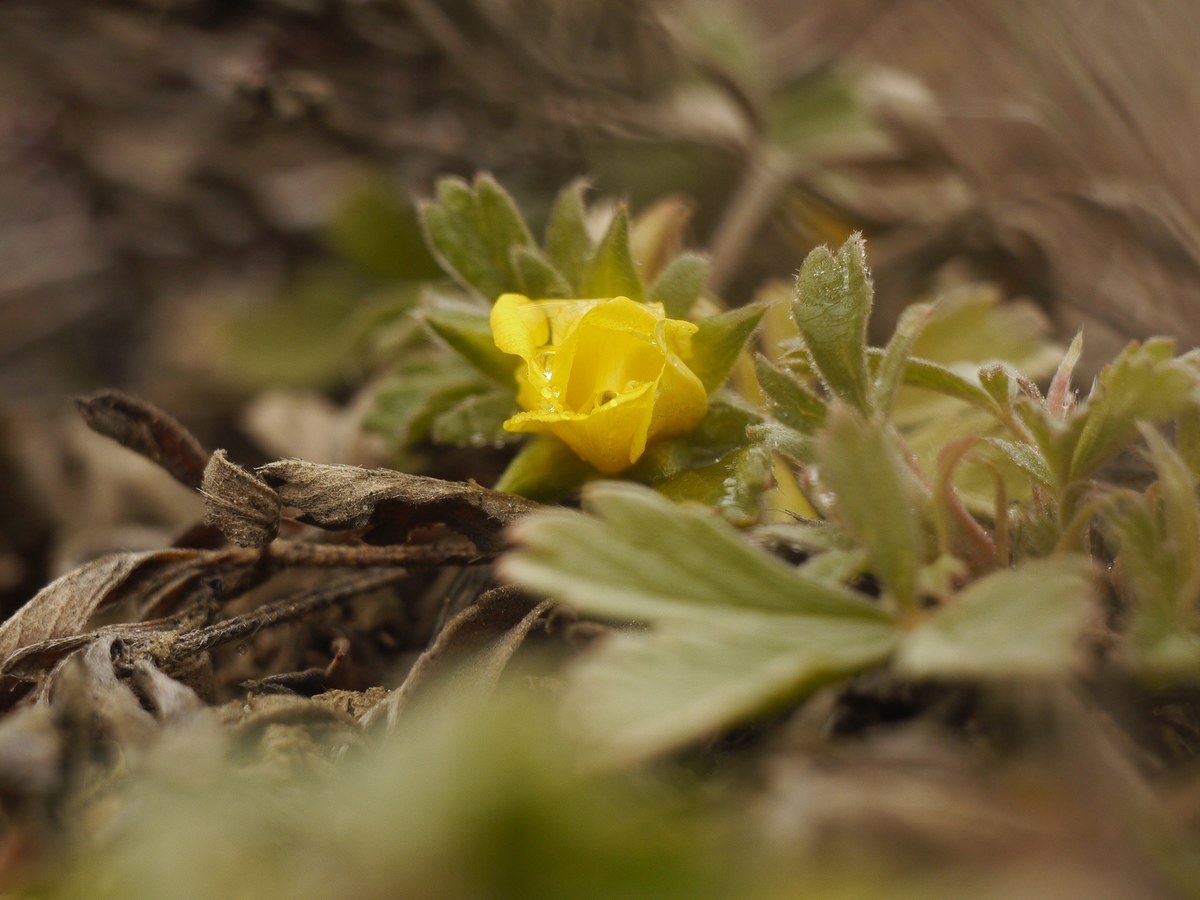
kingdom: Plantae
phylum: Tracheophyta
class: Magnoliopsida
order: Rosales
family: Rosaceae
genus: Potentilla
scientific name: Potentilla incana
